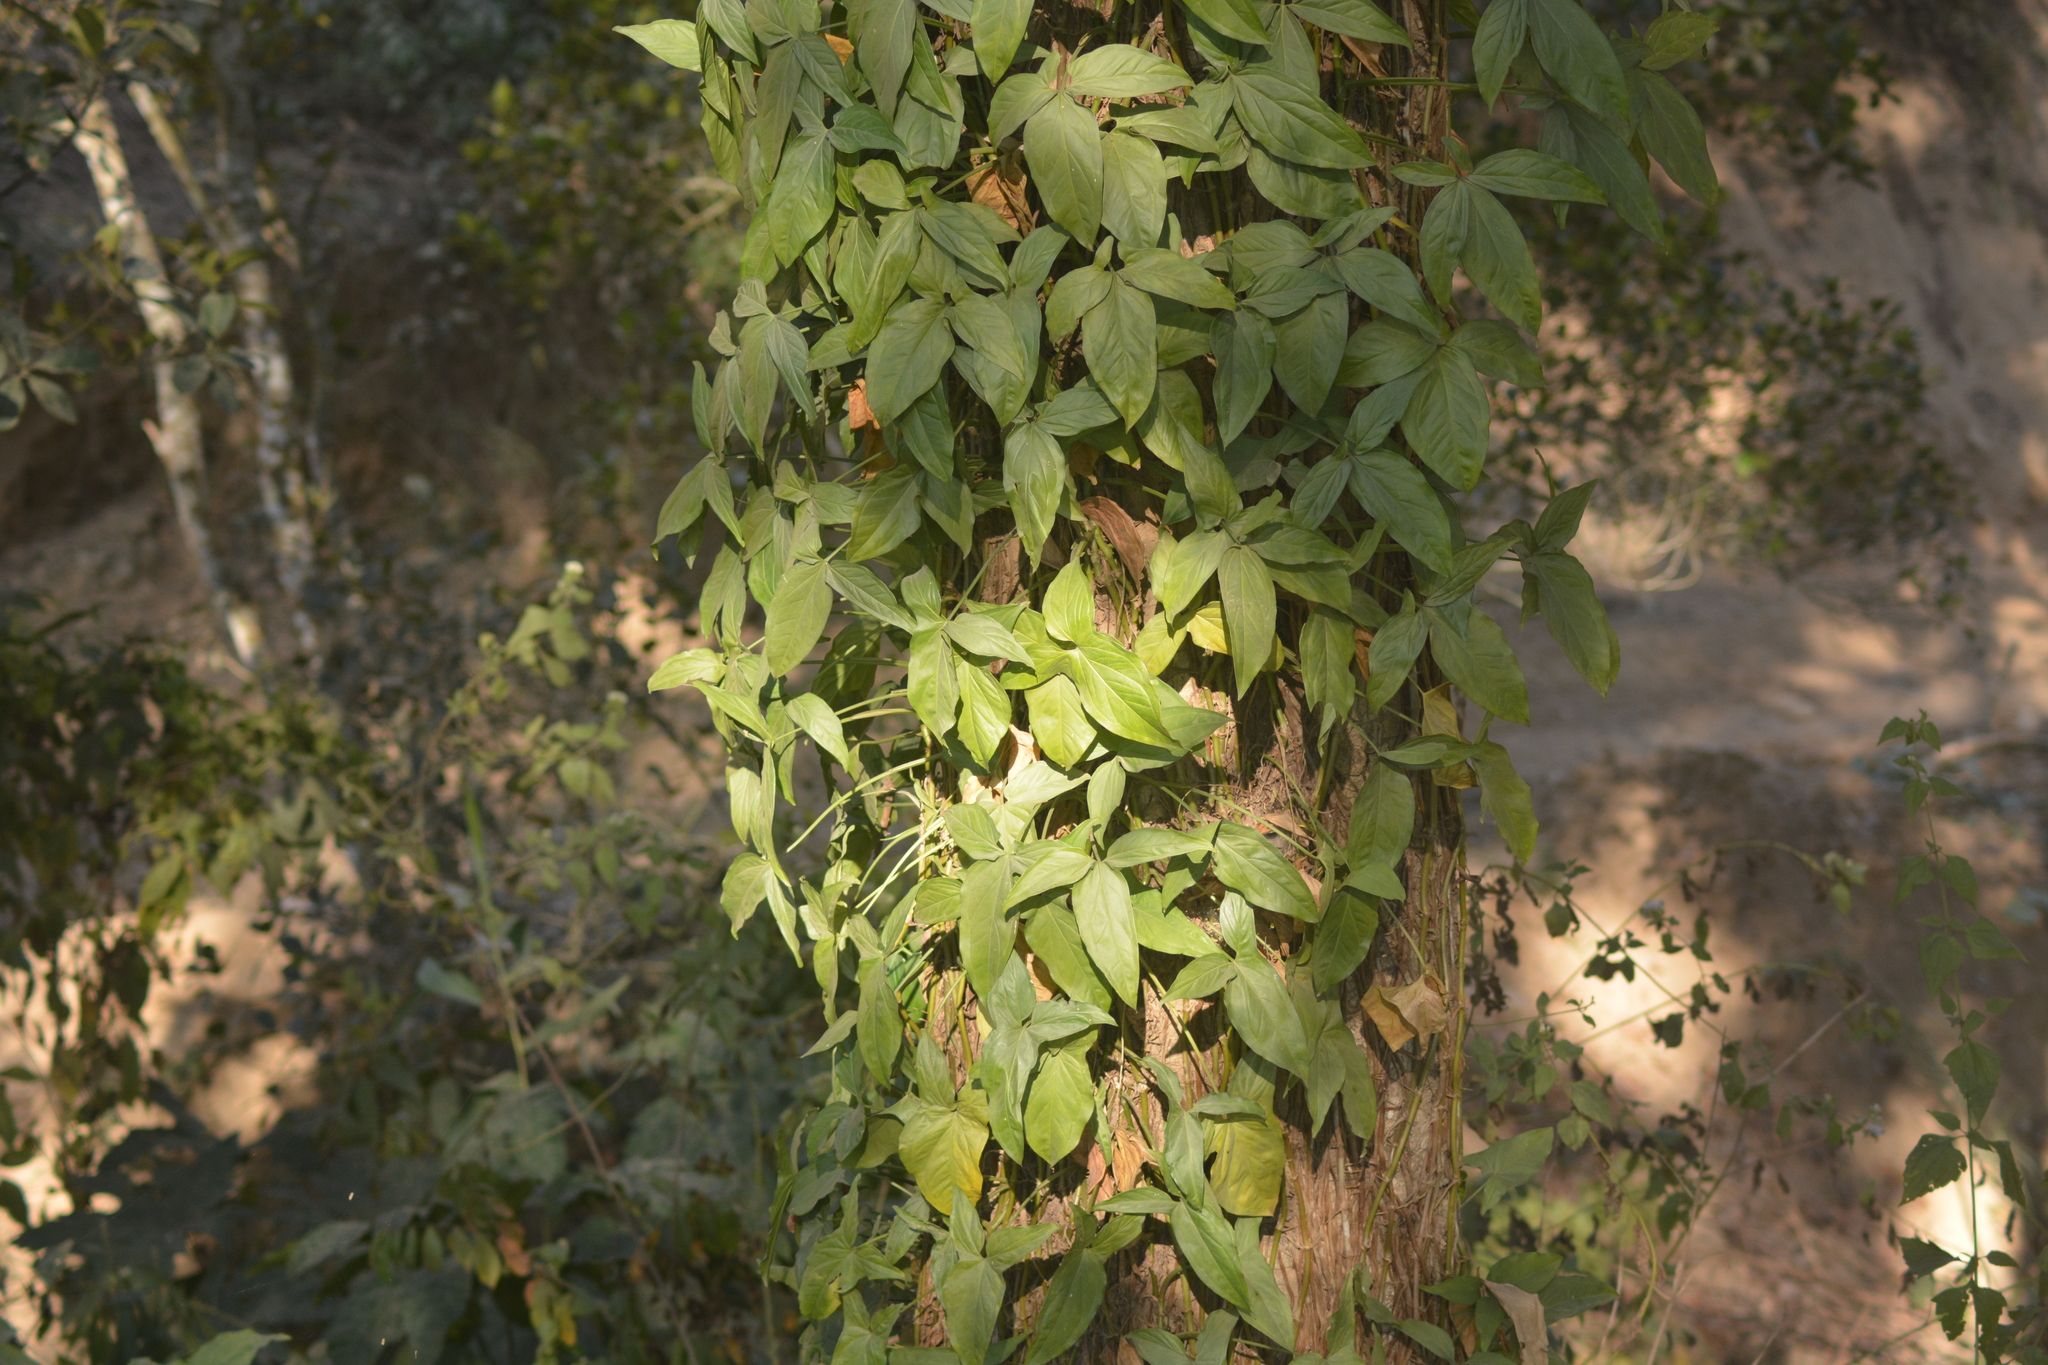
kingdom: Plantae
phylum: Tracheophyta
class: Liliopsida
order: Alismatales
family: Araceae
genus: Syngonium
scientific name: Syngonium podophyllum
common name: American evergreen
